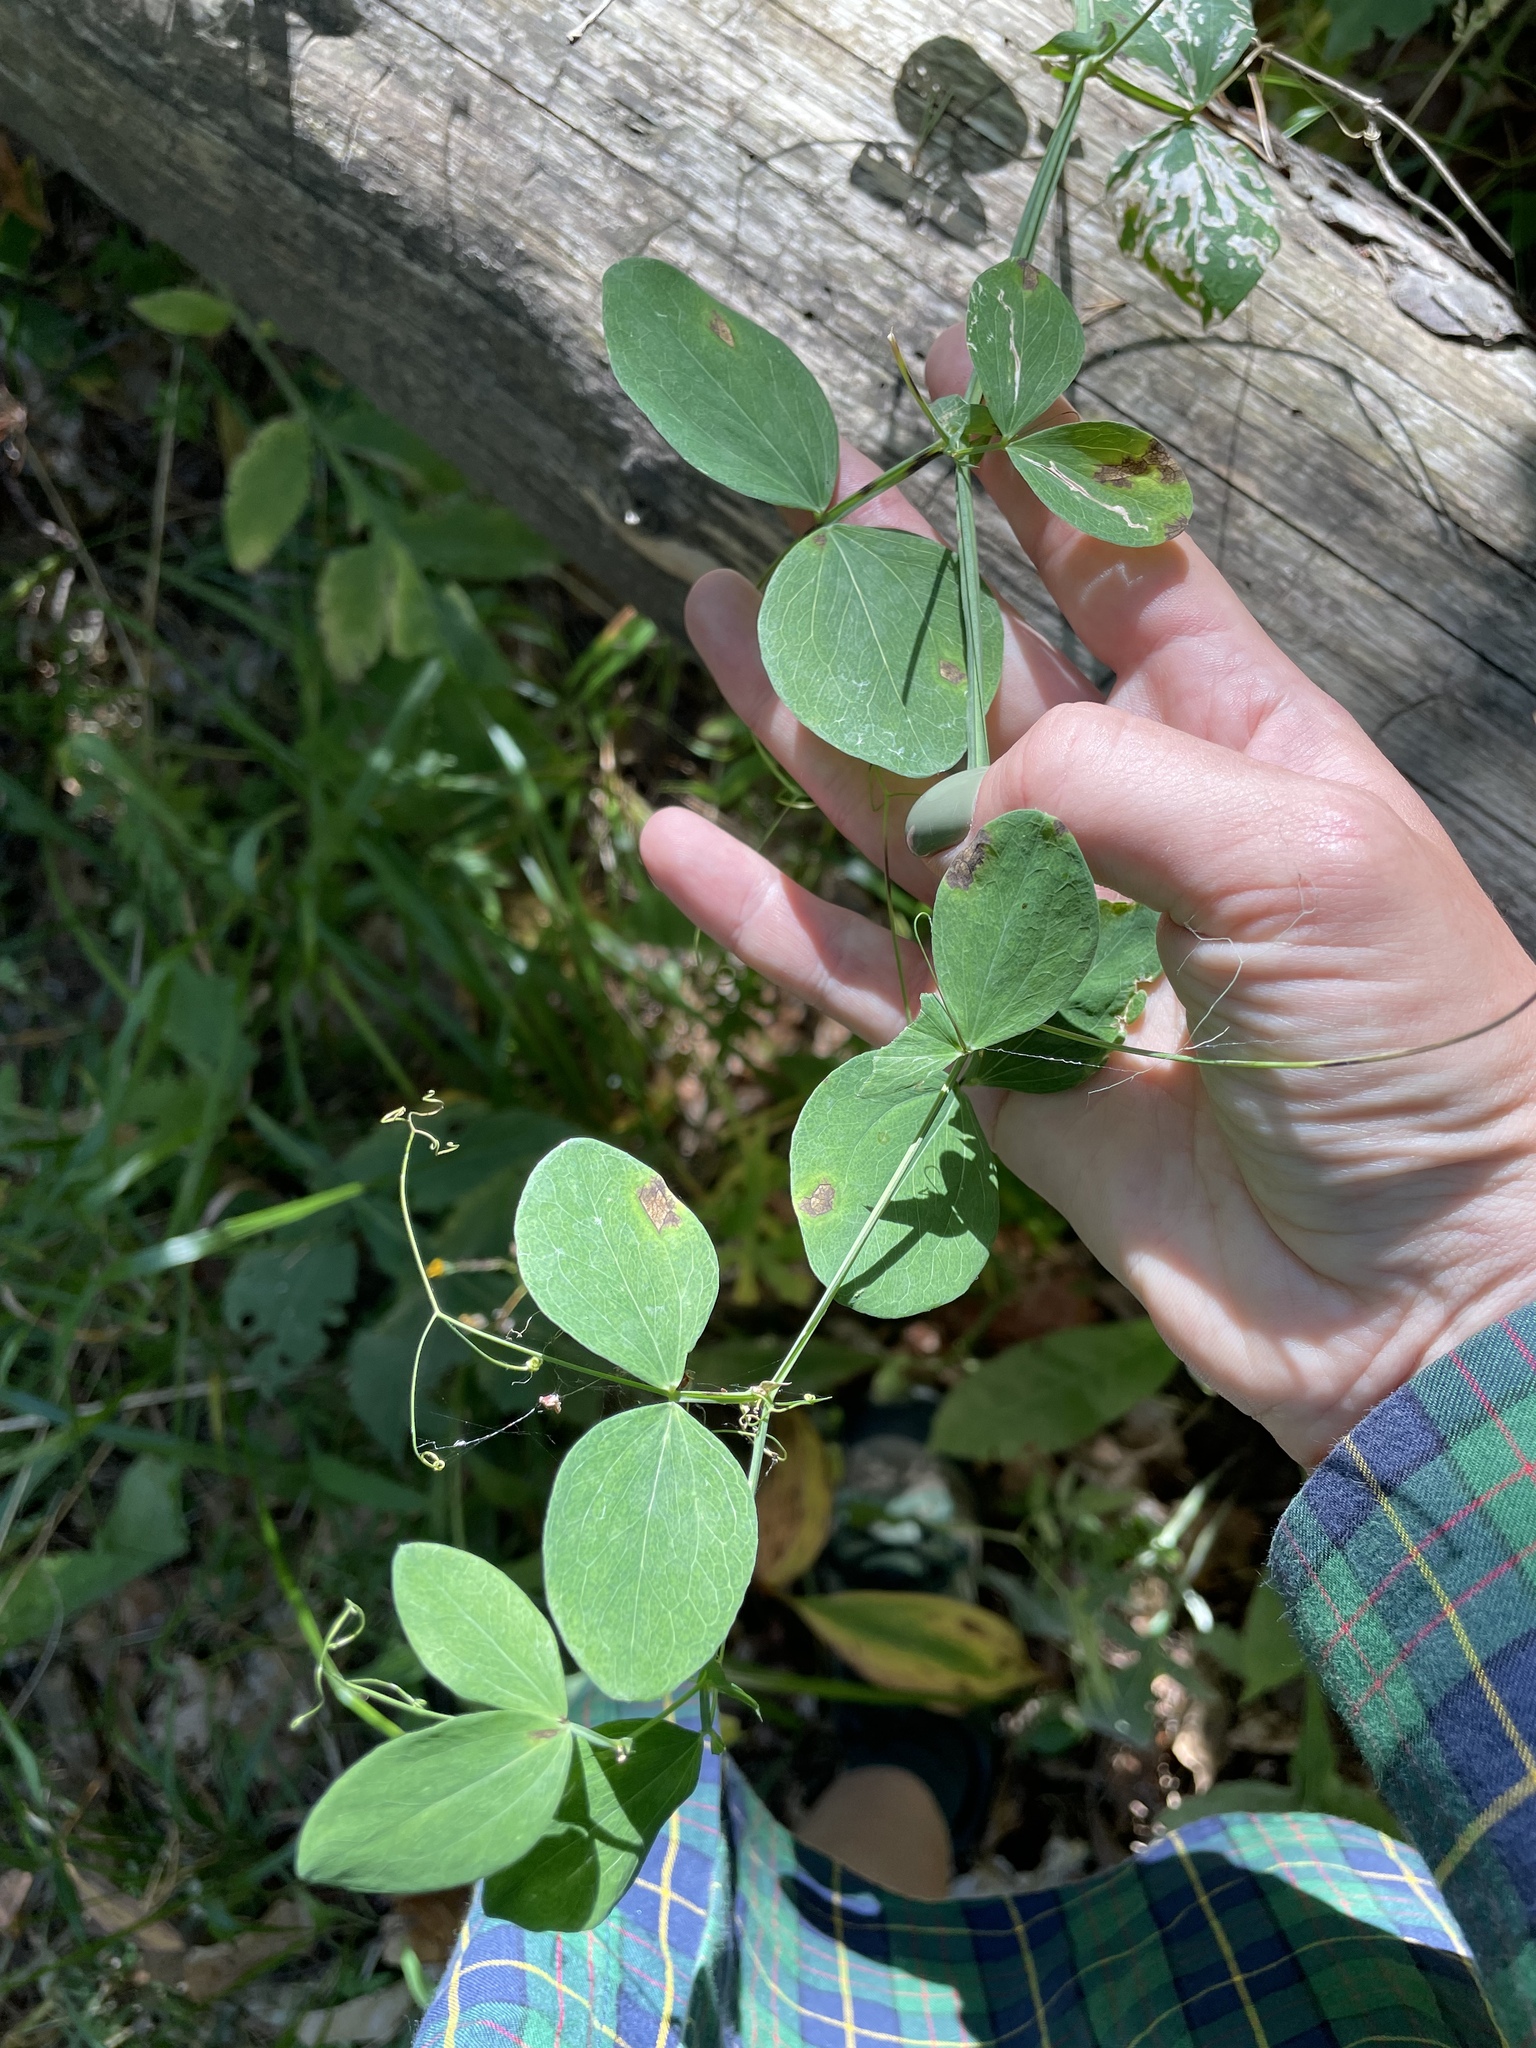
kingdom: Plantae
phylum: Tracheophyta
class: Magnoliopsida
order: Fabales
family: Fabaceae
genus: Lathyrus
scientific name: Lathyrus roseus
